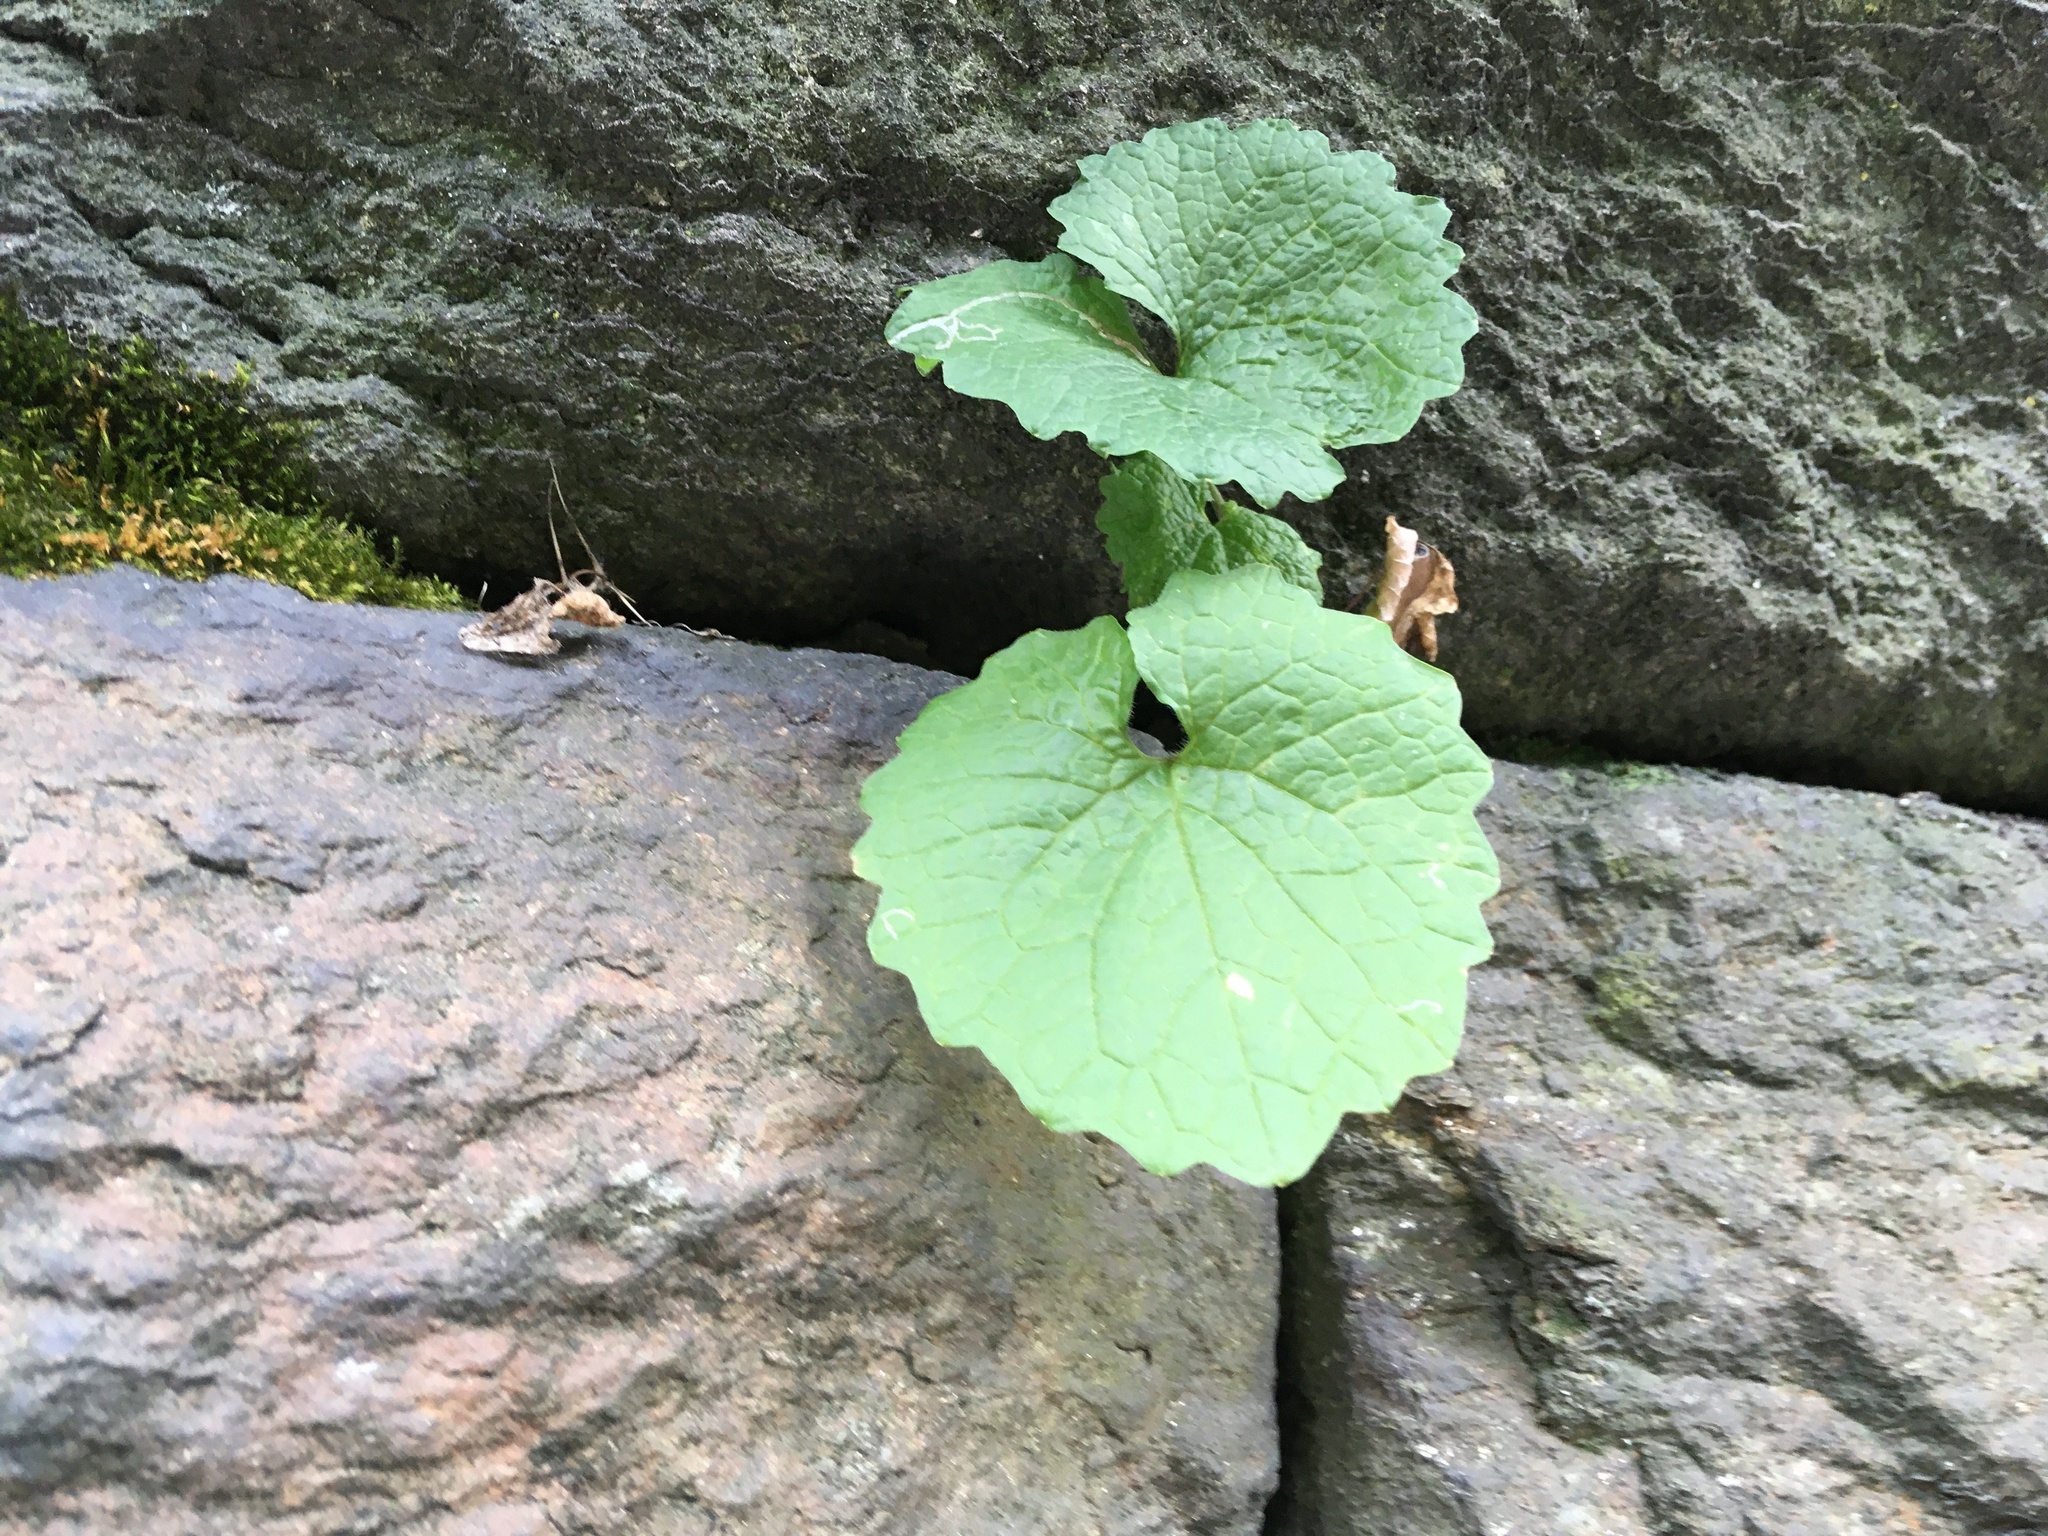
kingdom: Plantae
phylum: Tracheophyta
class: Magnoliopsida
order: Brassicales
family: Brassicaceae
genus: Alliaria
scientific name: Alliaria petiolata
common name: Garlic mustard
